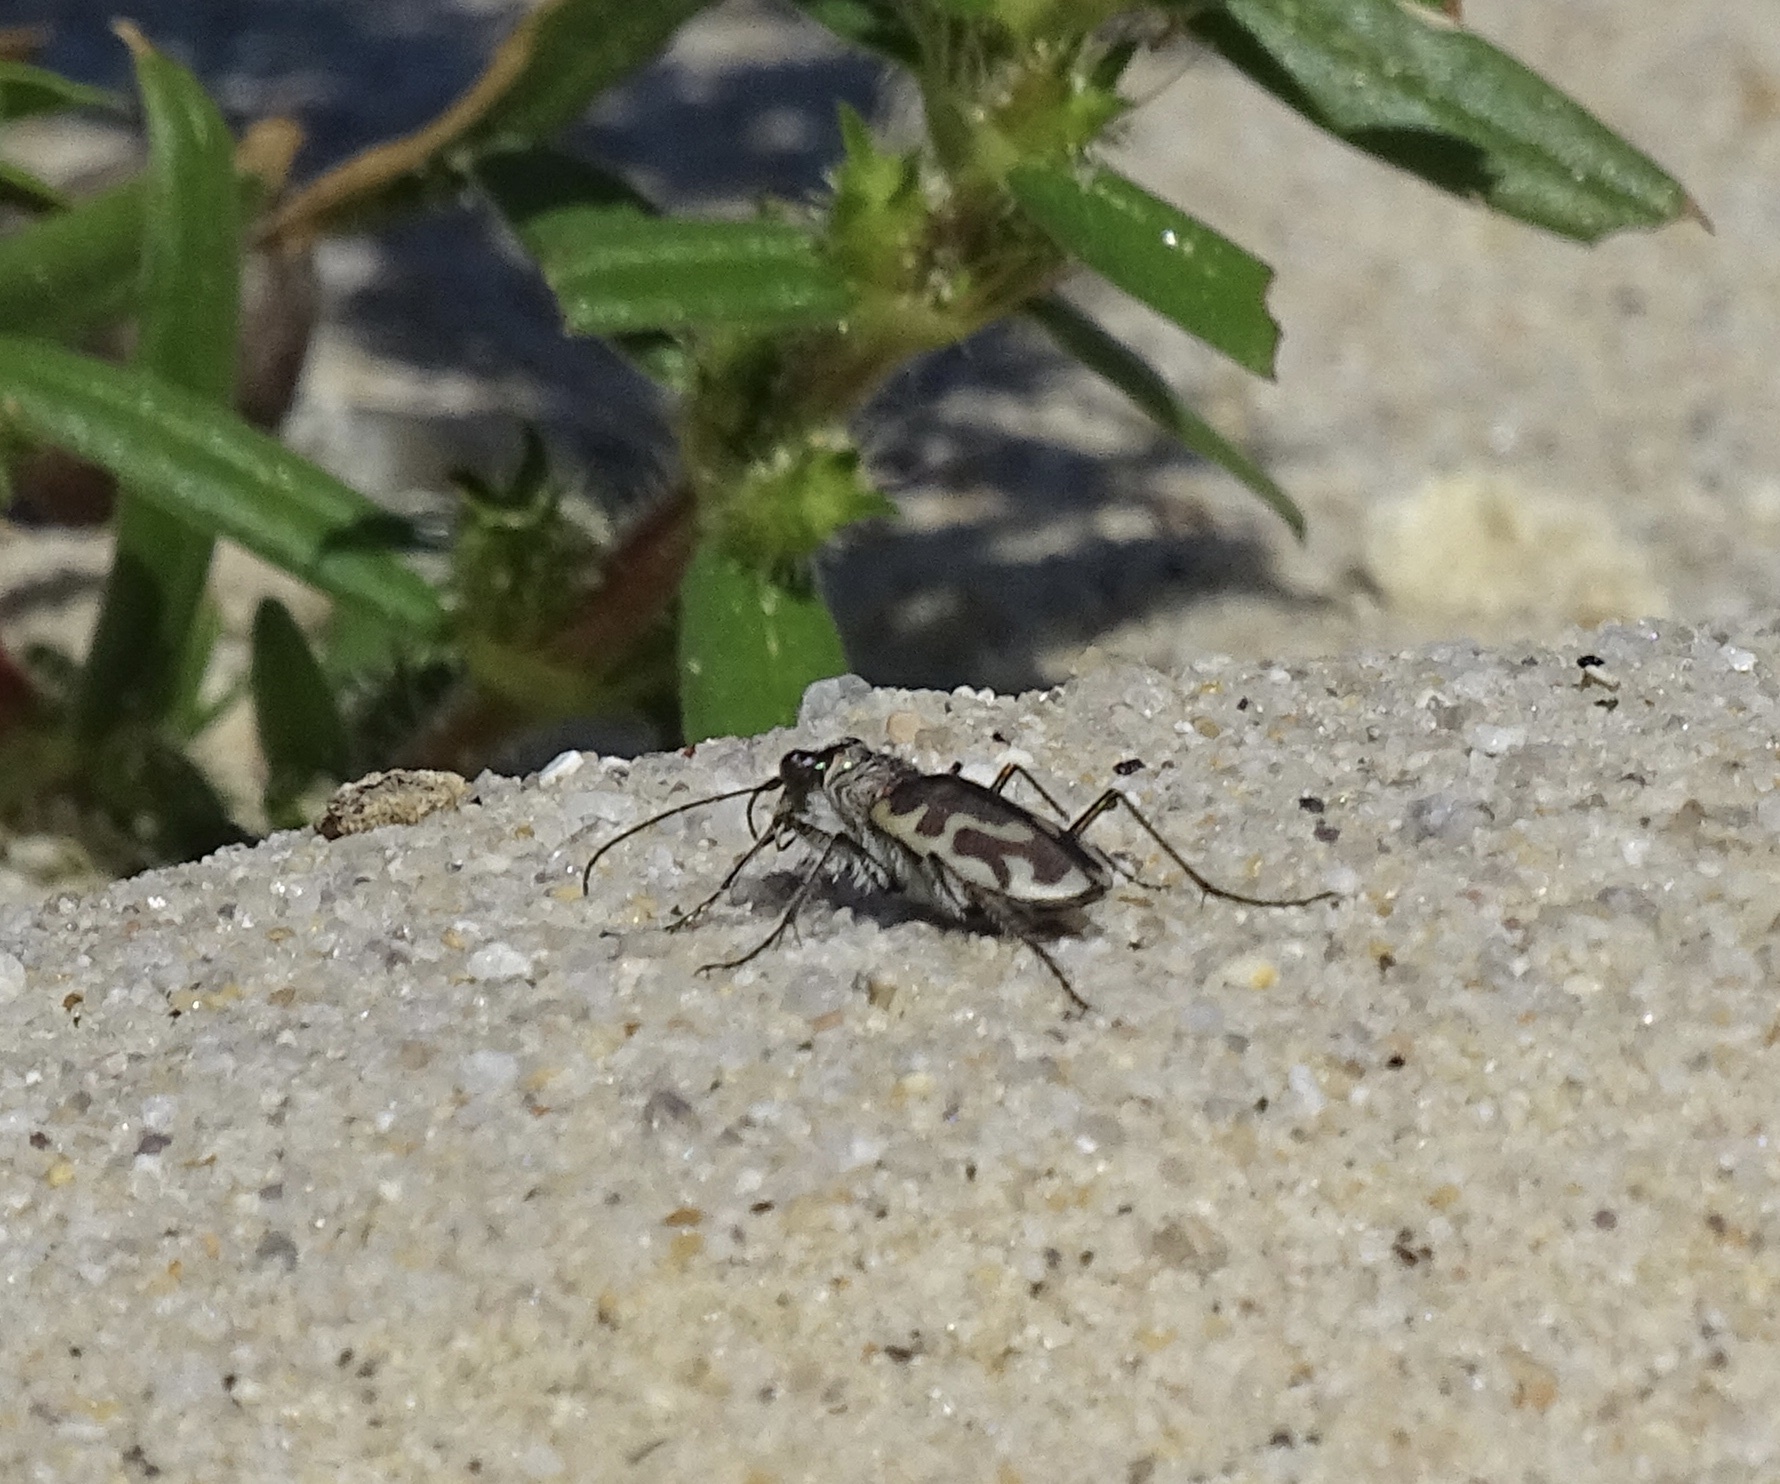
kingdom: Animalia
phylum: Arthropoda
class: Insecta
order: Coleoptera
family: Carabidae
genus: Cicindela
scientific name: Cicindela hirticollis
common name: Hairy-necked tiger beetle
